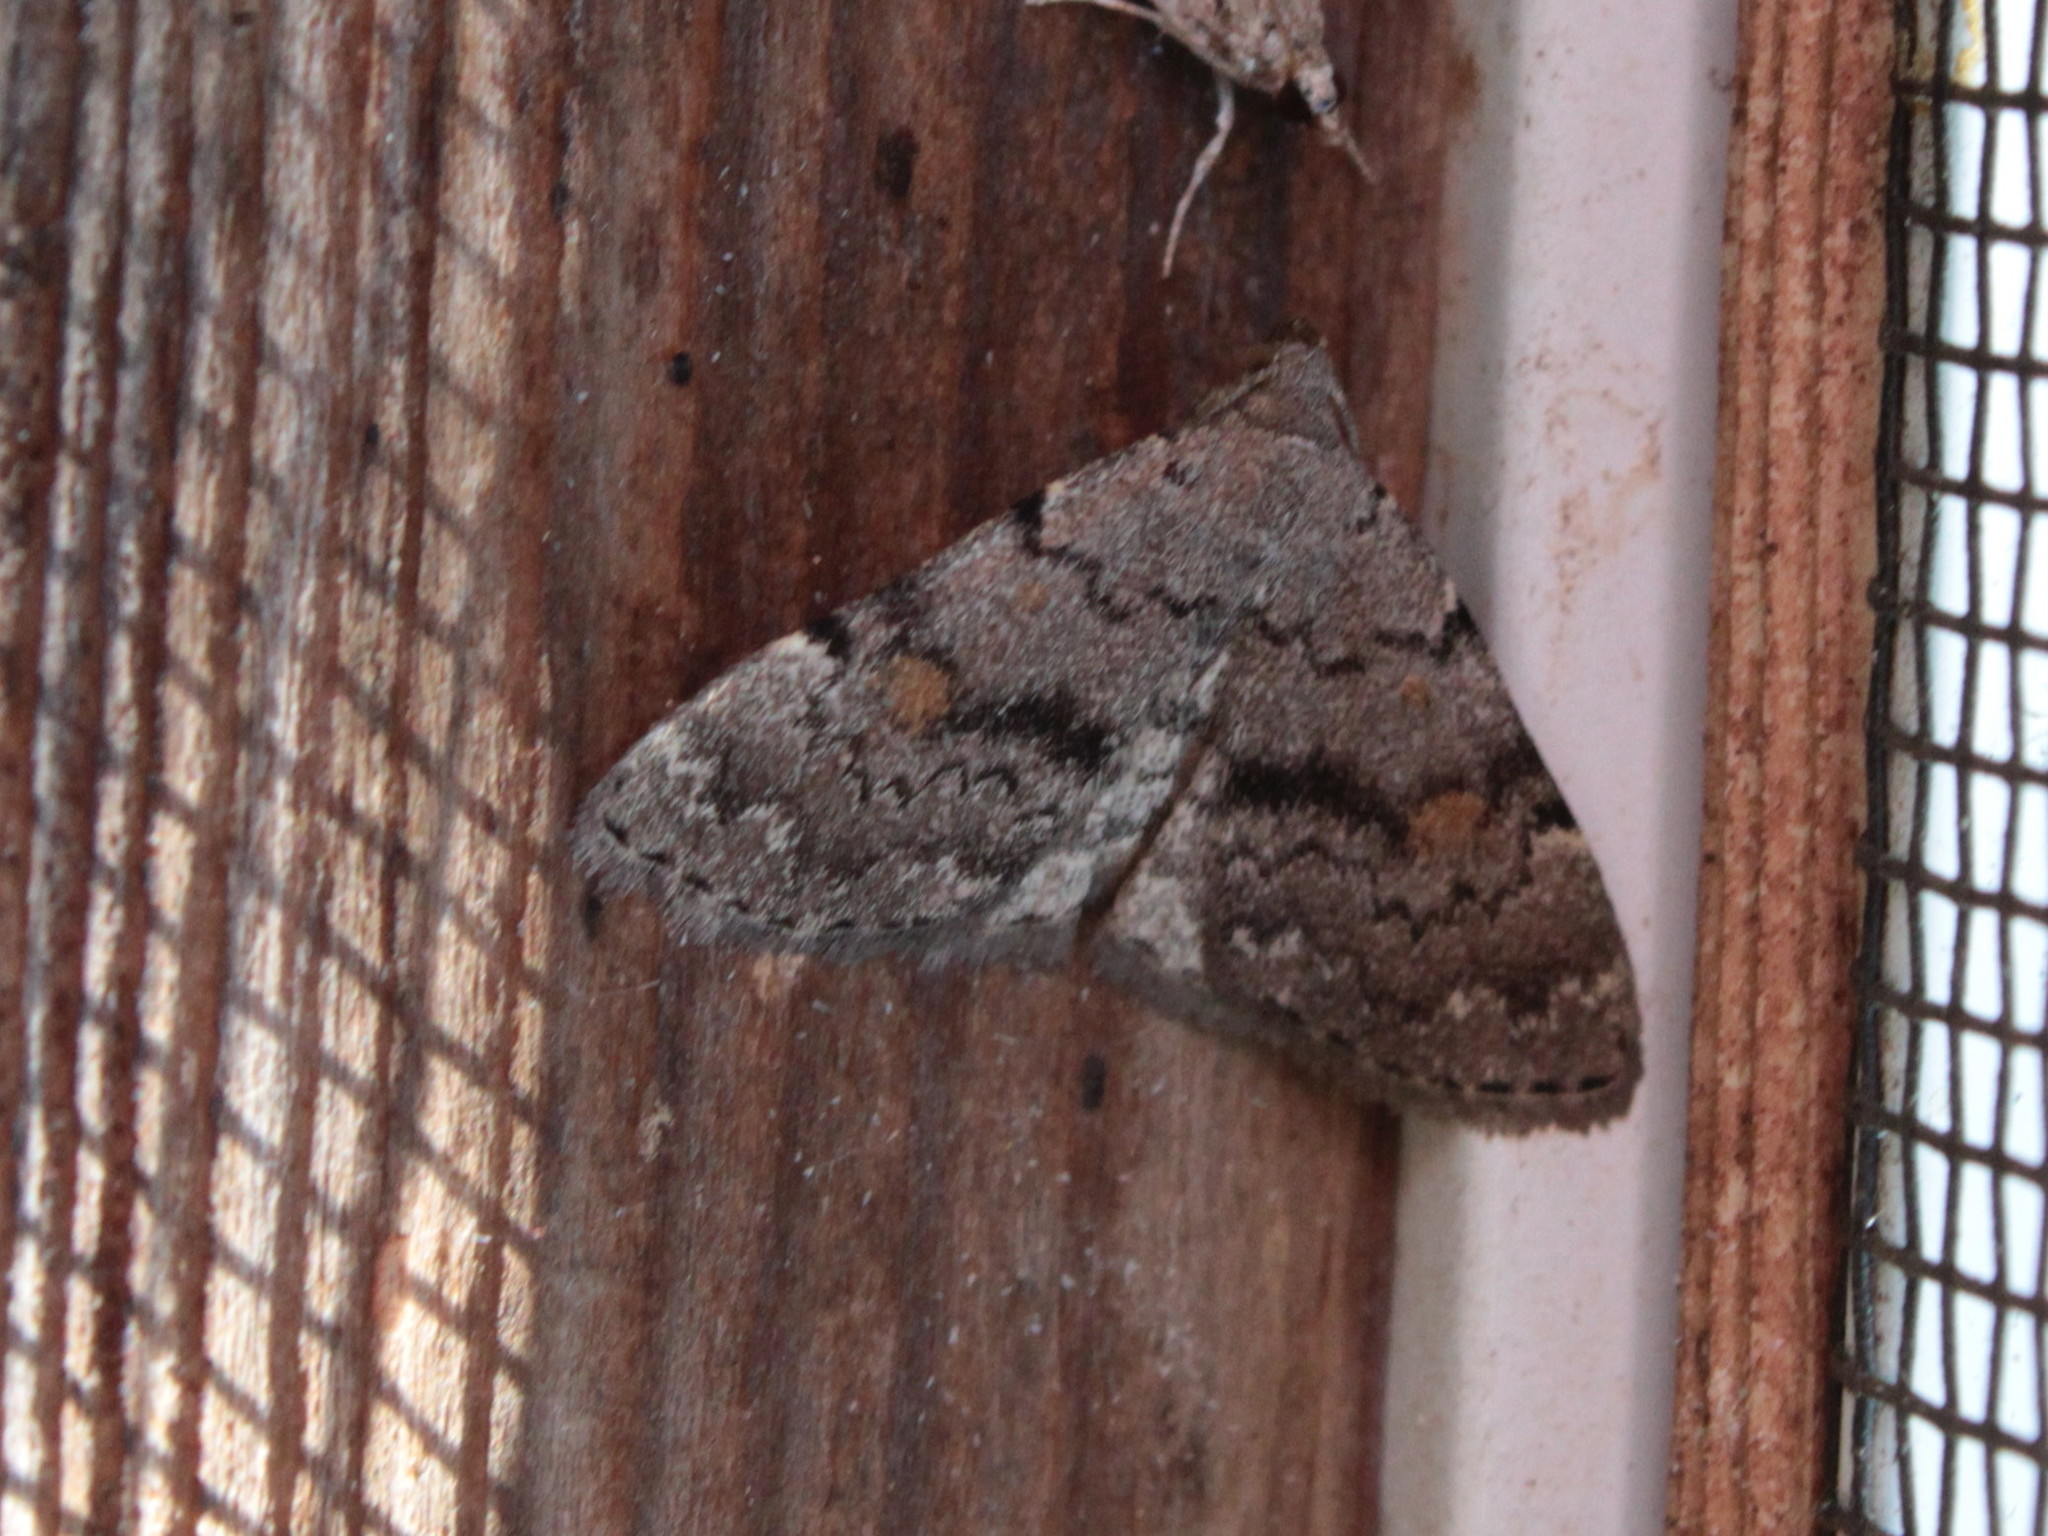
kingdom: Animalia
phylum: Arthropoda
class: Insecta
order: Lepidoptera
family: Erebidae
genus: Idia
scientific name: Idia aemula
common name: Common idia moth
